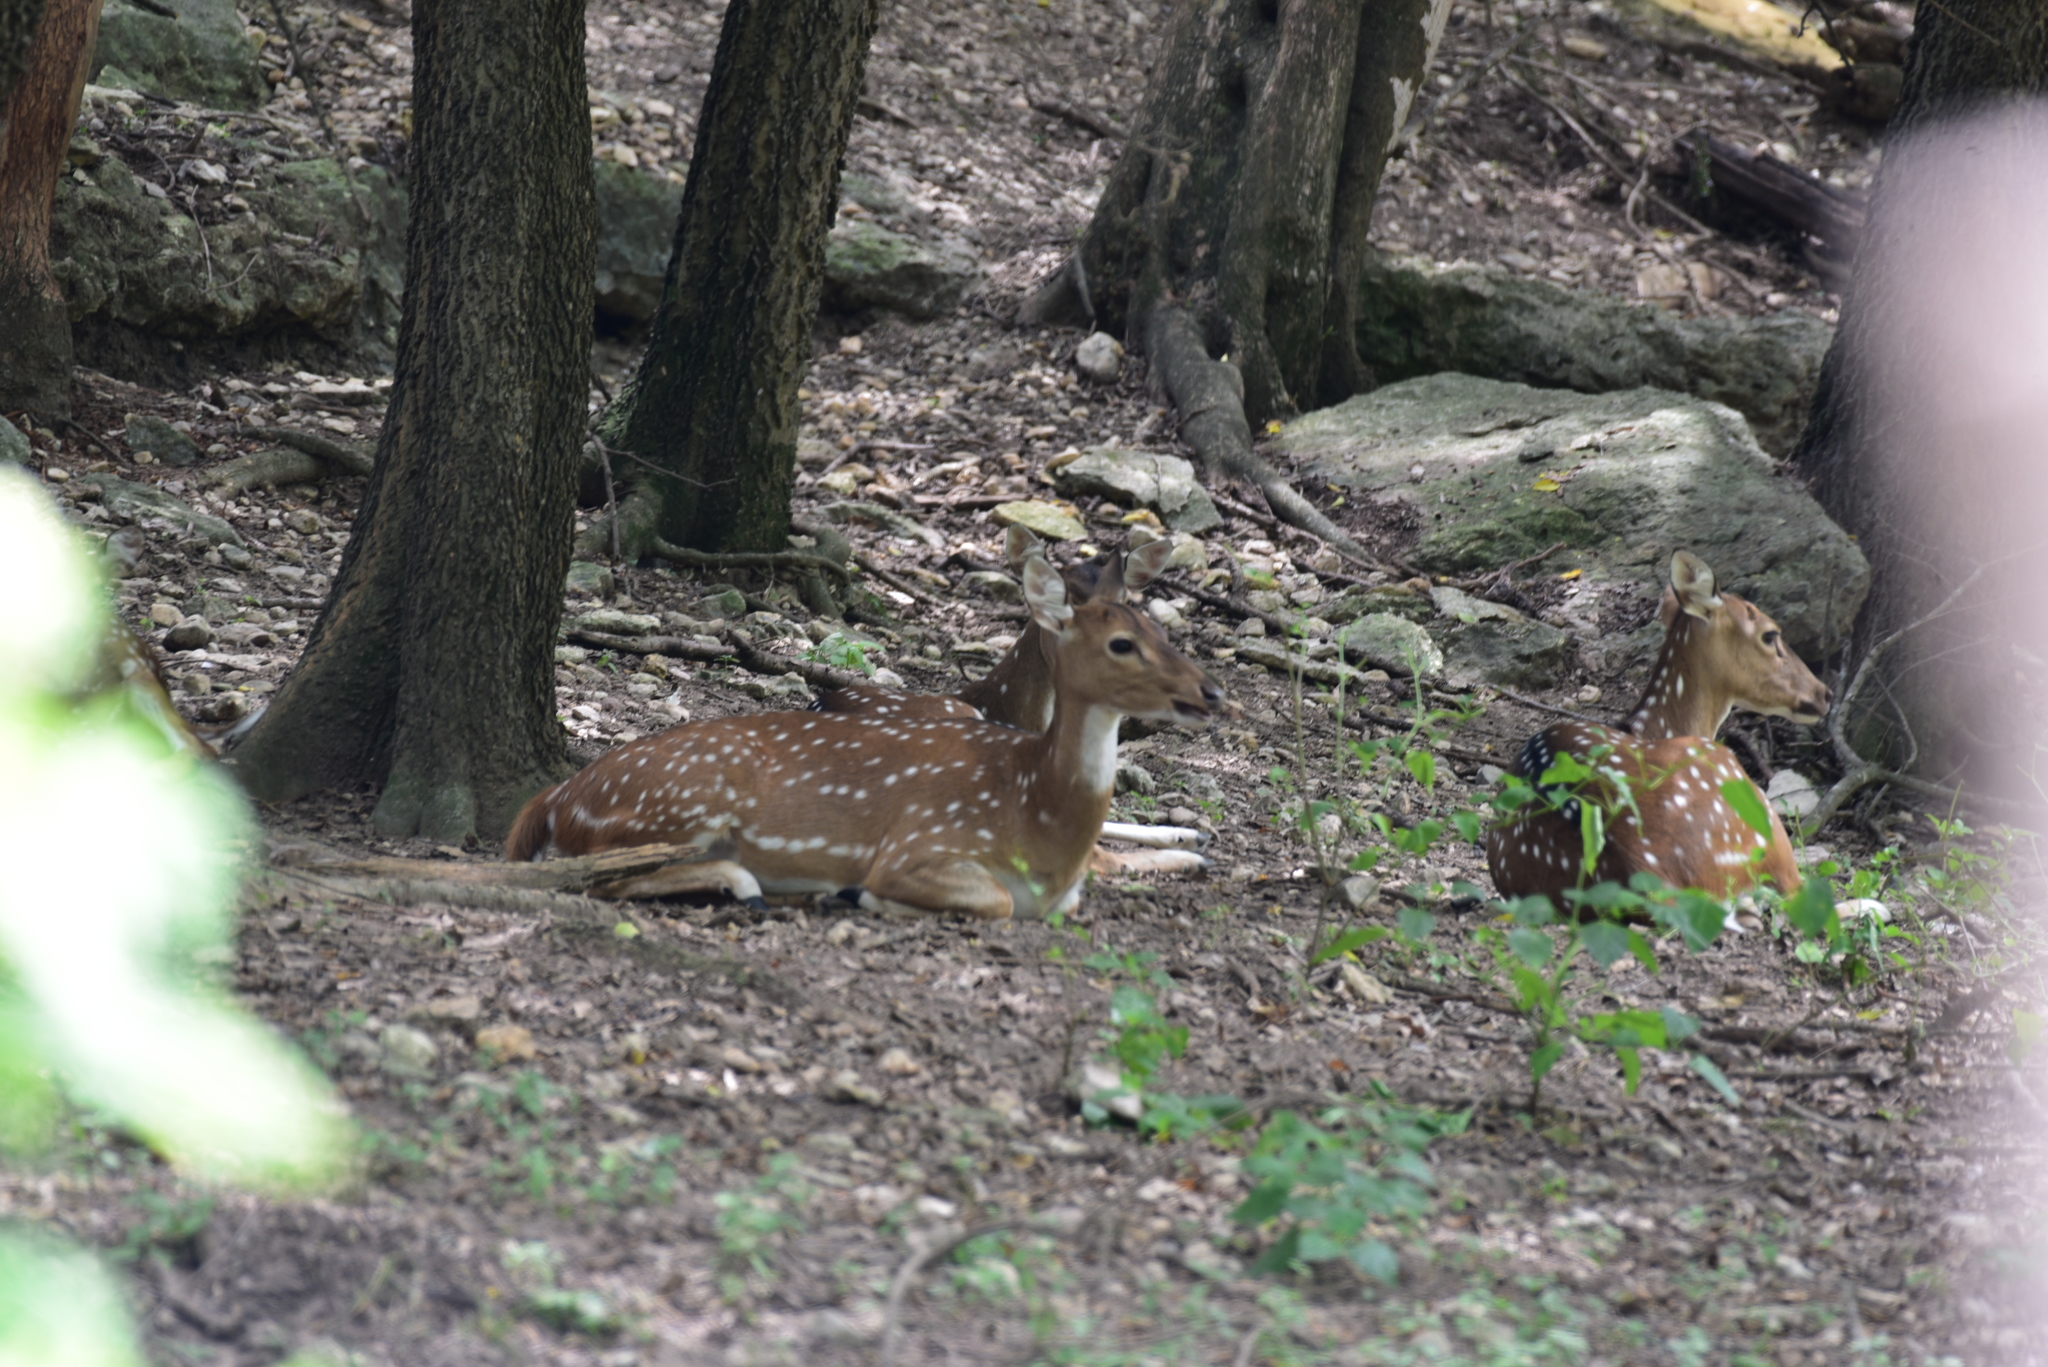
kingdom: Animalia
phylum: Chordata
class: Mammalia
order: Artiodactyla
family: Cervidae
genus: Axis
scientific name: Axis axis
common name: Chital
